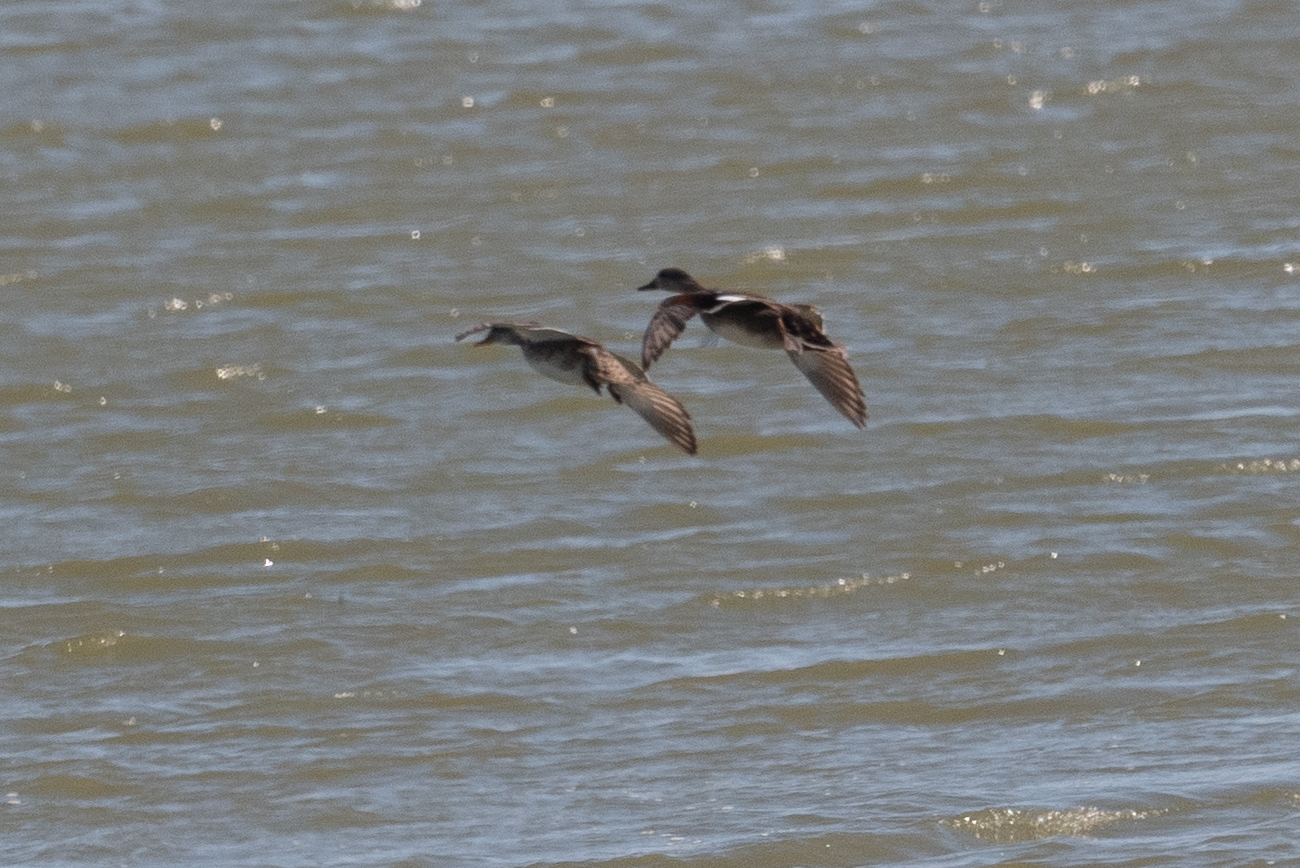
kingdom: Animalia
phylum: Chordata
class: Aves
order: Anseriformes
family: Anatidae
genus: Mareca
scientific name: Mareca strepera
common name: Gadwall
